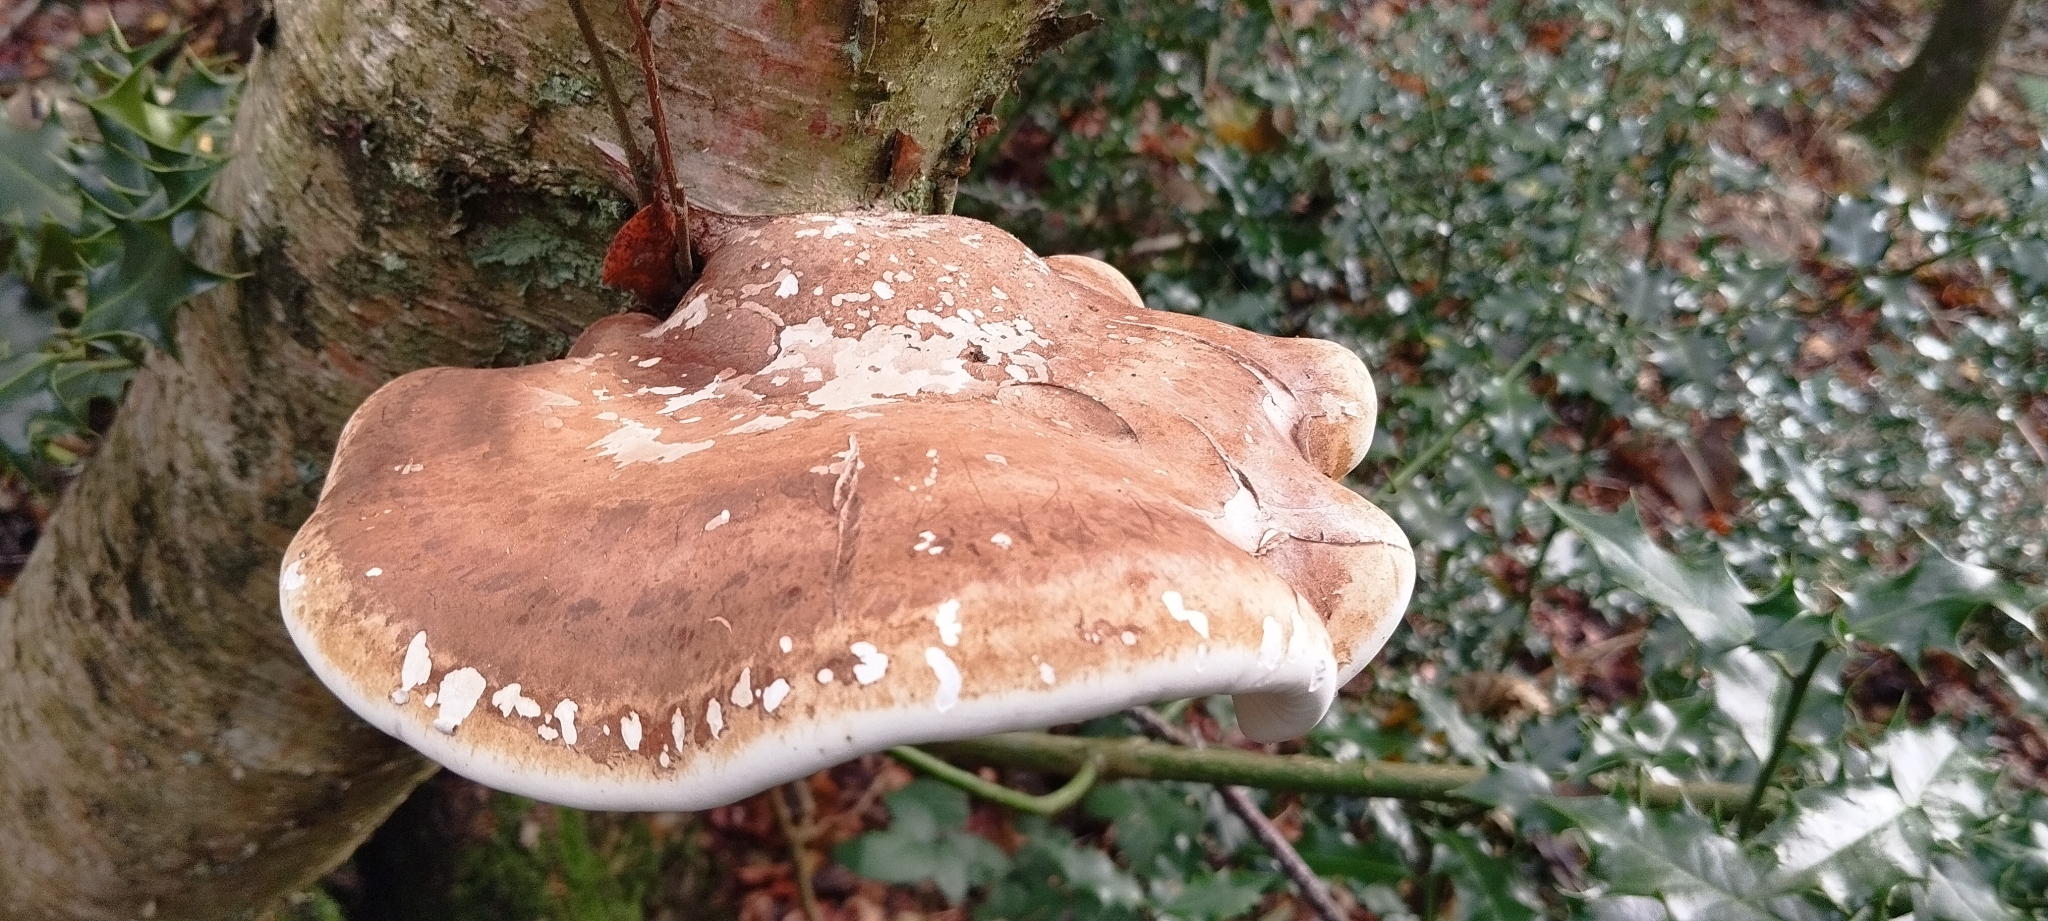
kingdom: Fungi
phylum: Basidiomycota
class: Agaricomycetes
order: Polyporales
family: Fomitopsidaceae
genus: Fomitopsis
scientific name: Fomitopsis betulina
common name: Birch polypore
